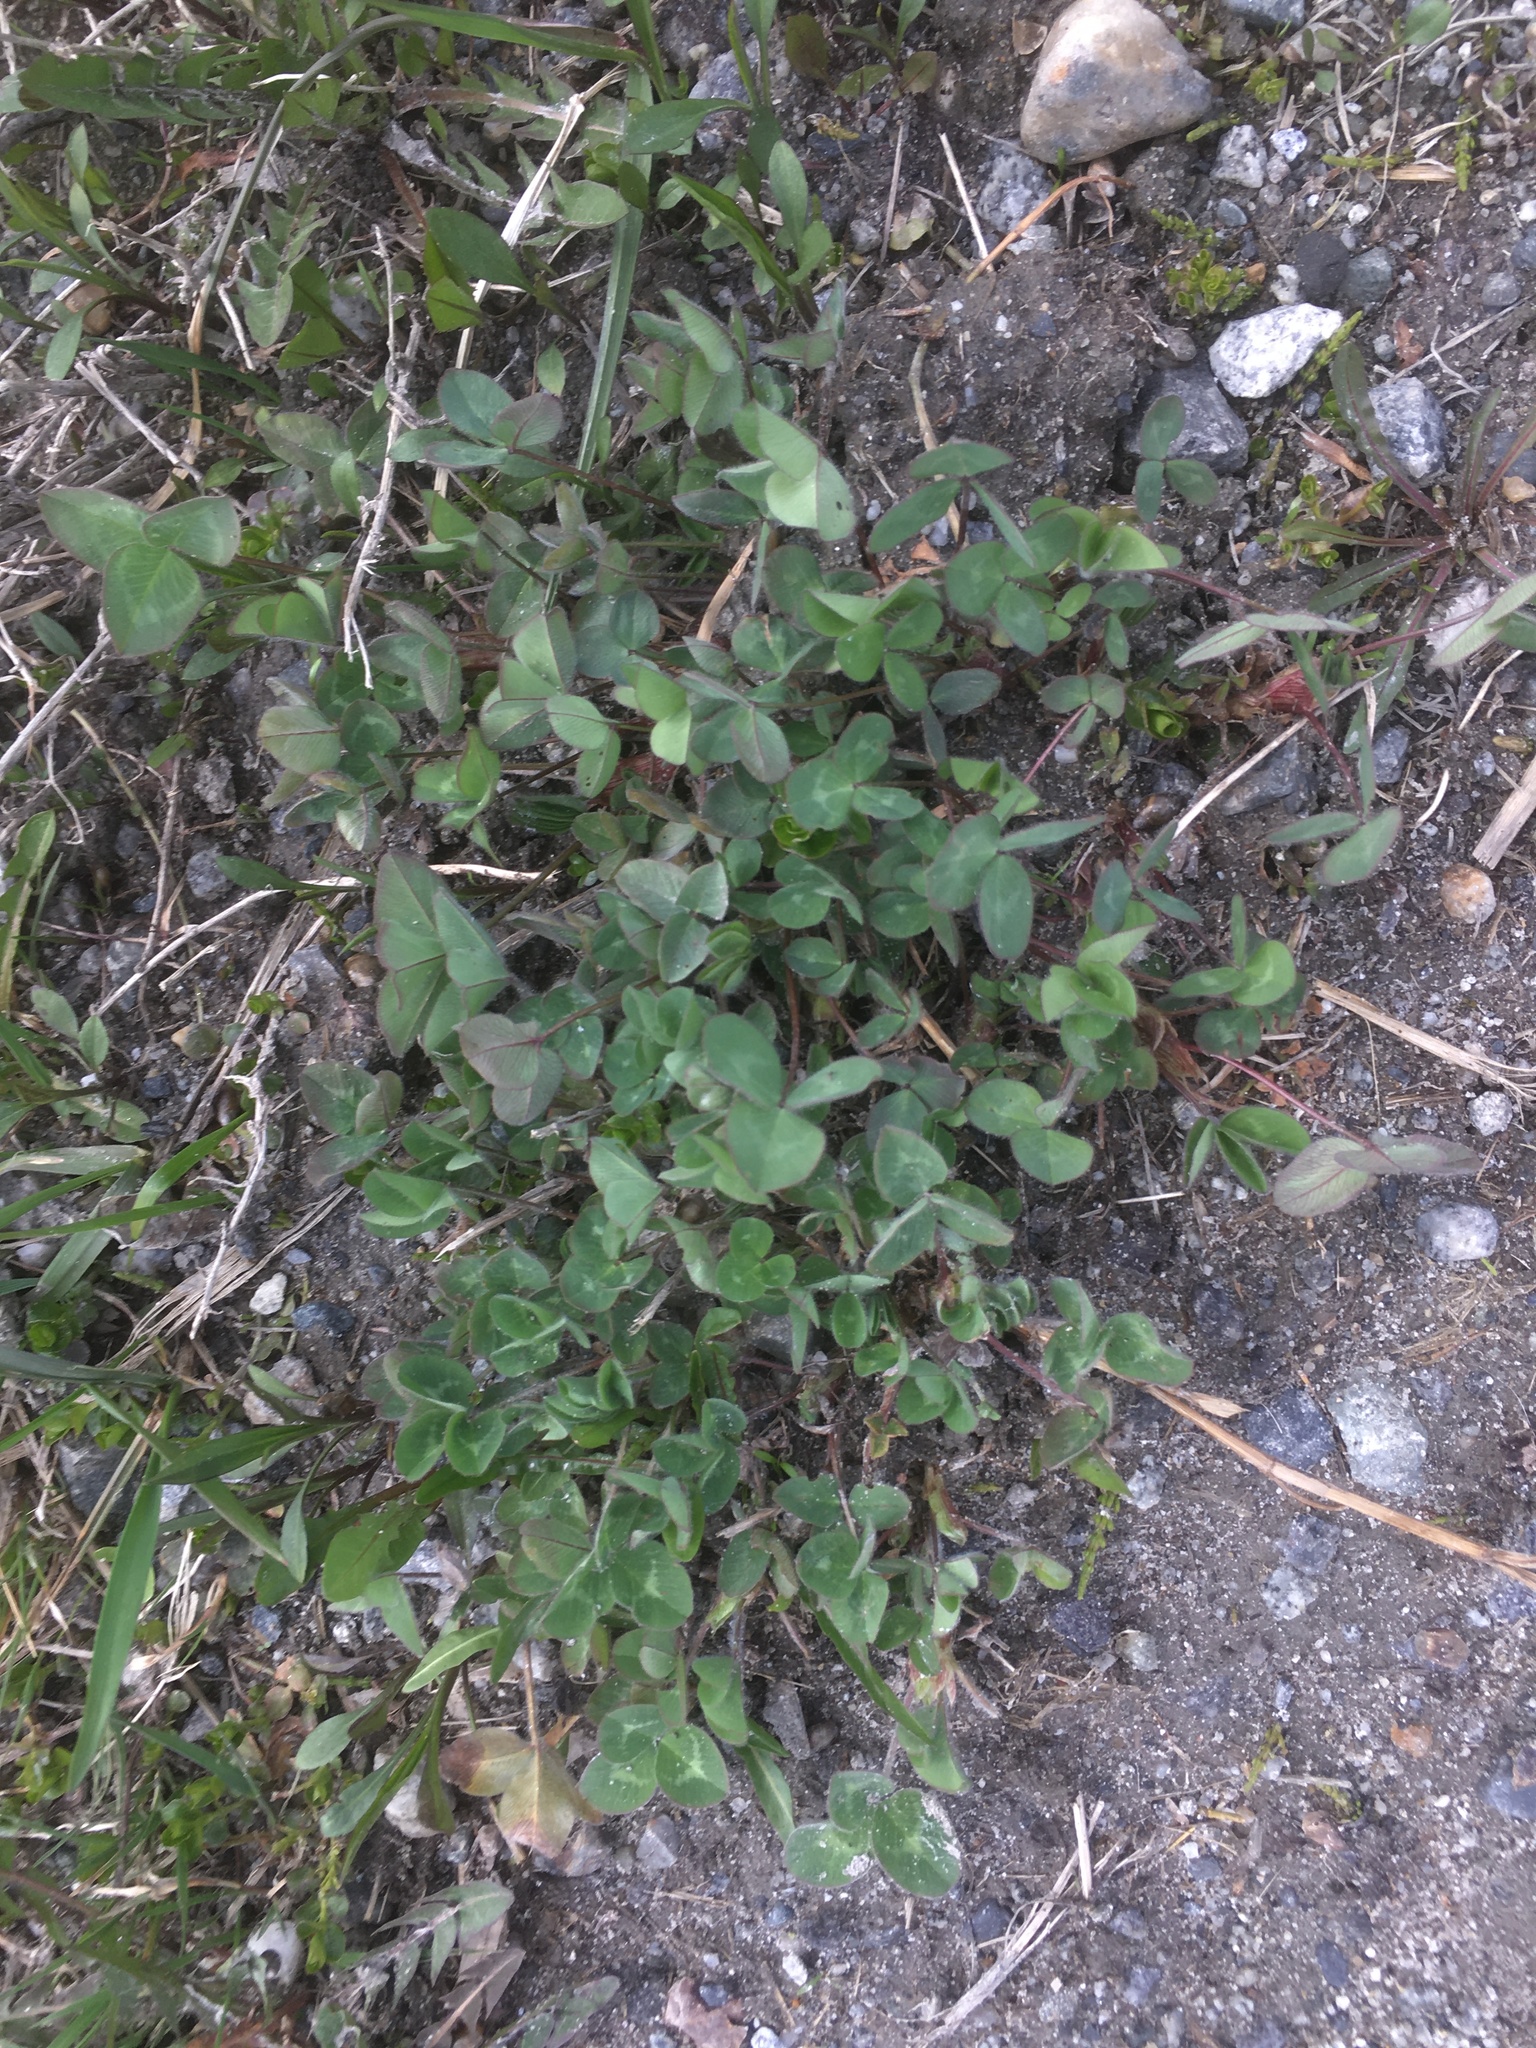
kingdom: Plantae
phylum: Tracheophyta
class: Magnoliopsida
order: Fabales
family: Fabaceae
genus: Trifolium
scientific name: Trifolium pratense
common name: Red clover
